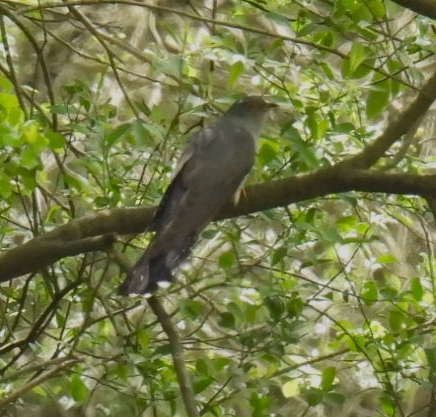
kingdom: Animalia
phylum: Chordata
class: Aves
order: Cuculiformes
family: Cuculidae
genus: Cuculus
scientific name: Cuculus canorus
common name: Common cuckoo
